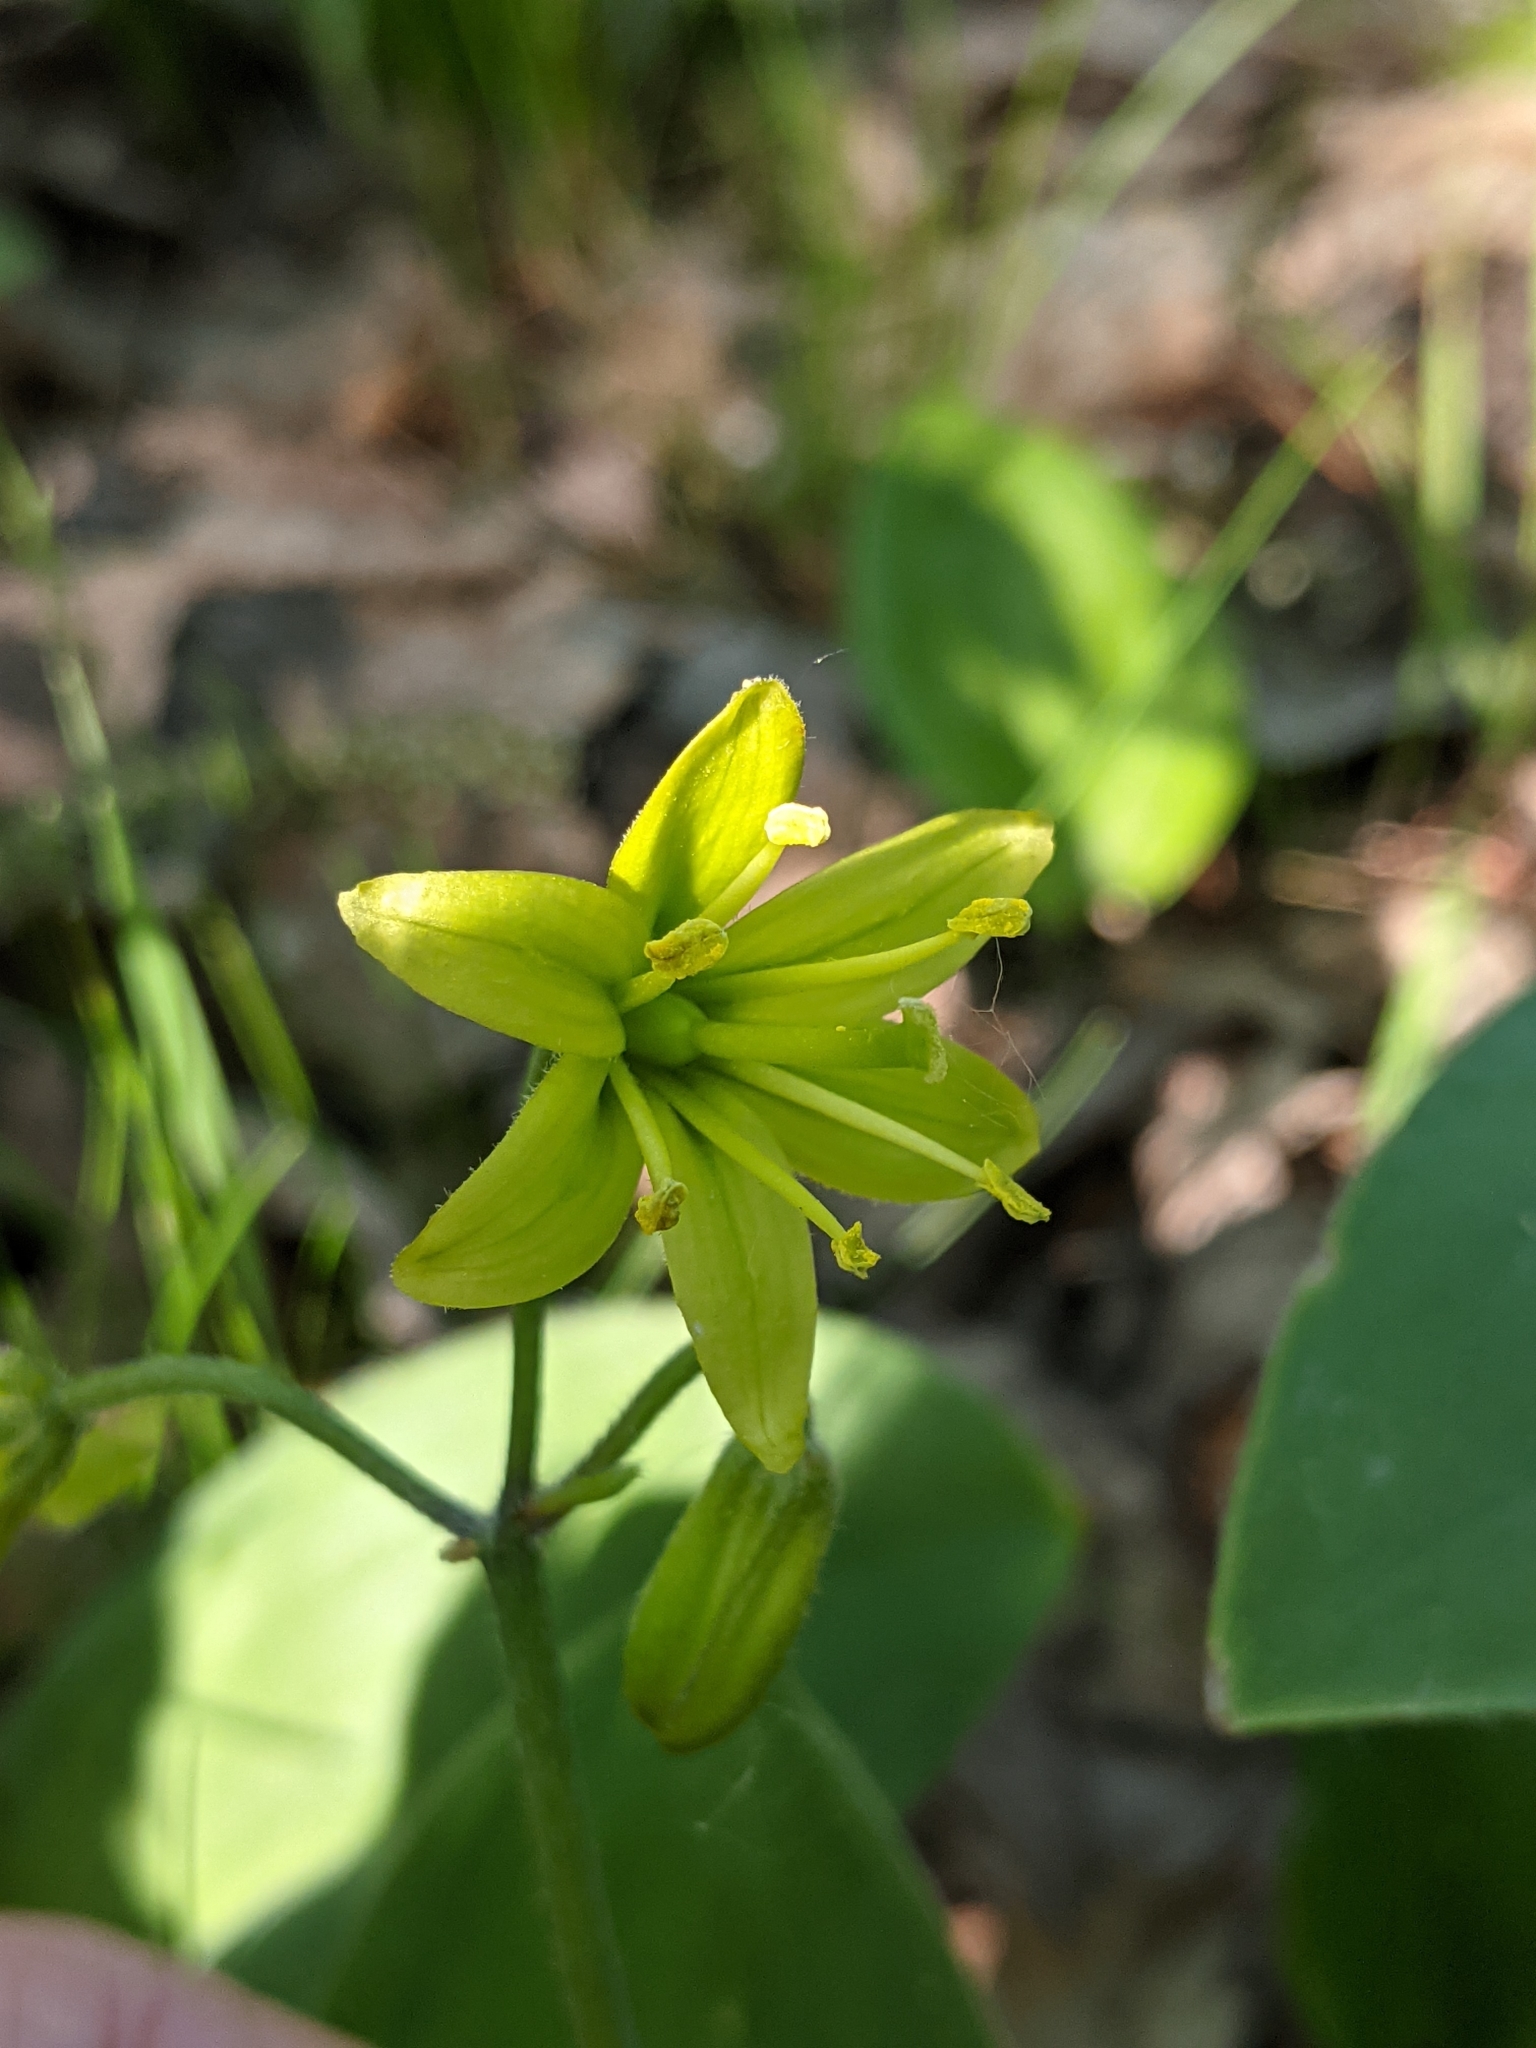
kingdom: Plantae
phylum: Tracheophyta
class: Liliopsida
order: Liliales
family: Liliaceae
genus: Clintonia
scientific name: Clintonia borealis
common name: Yellow clintonia
